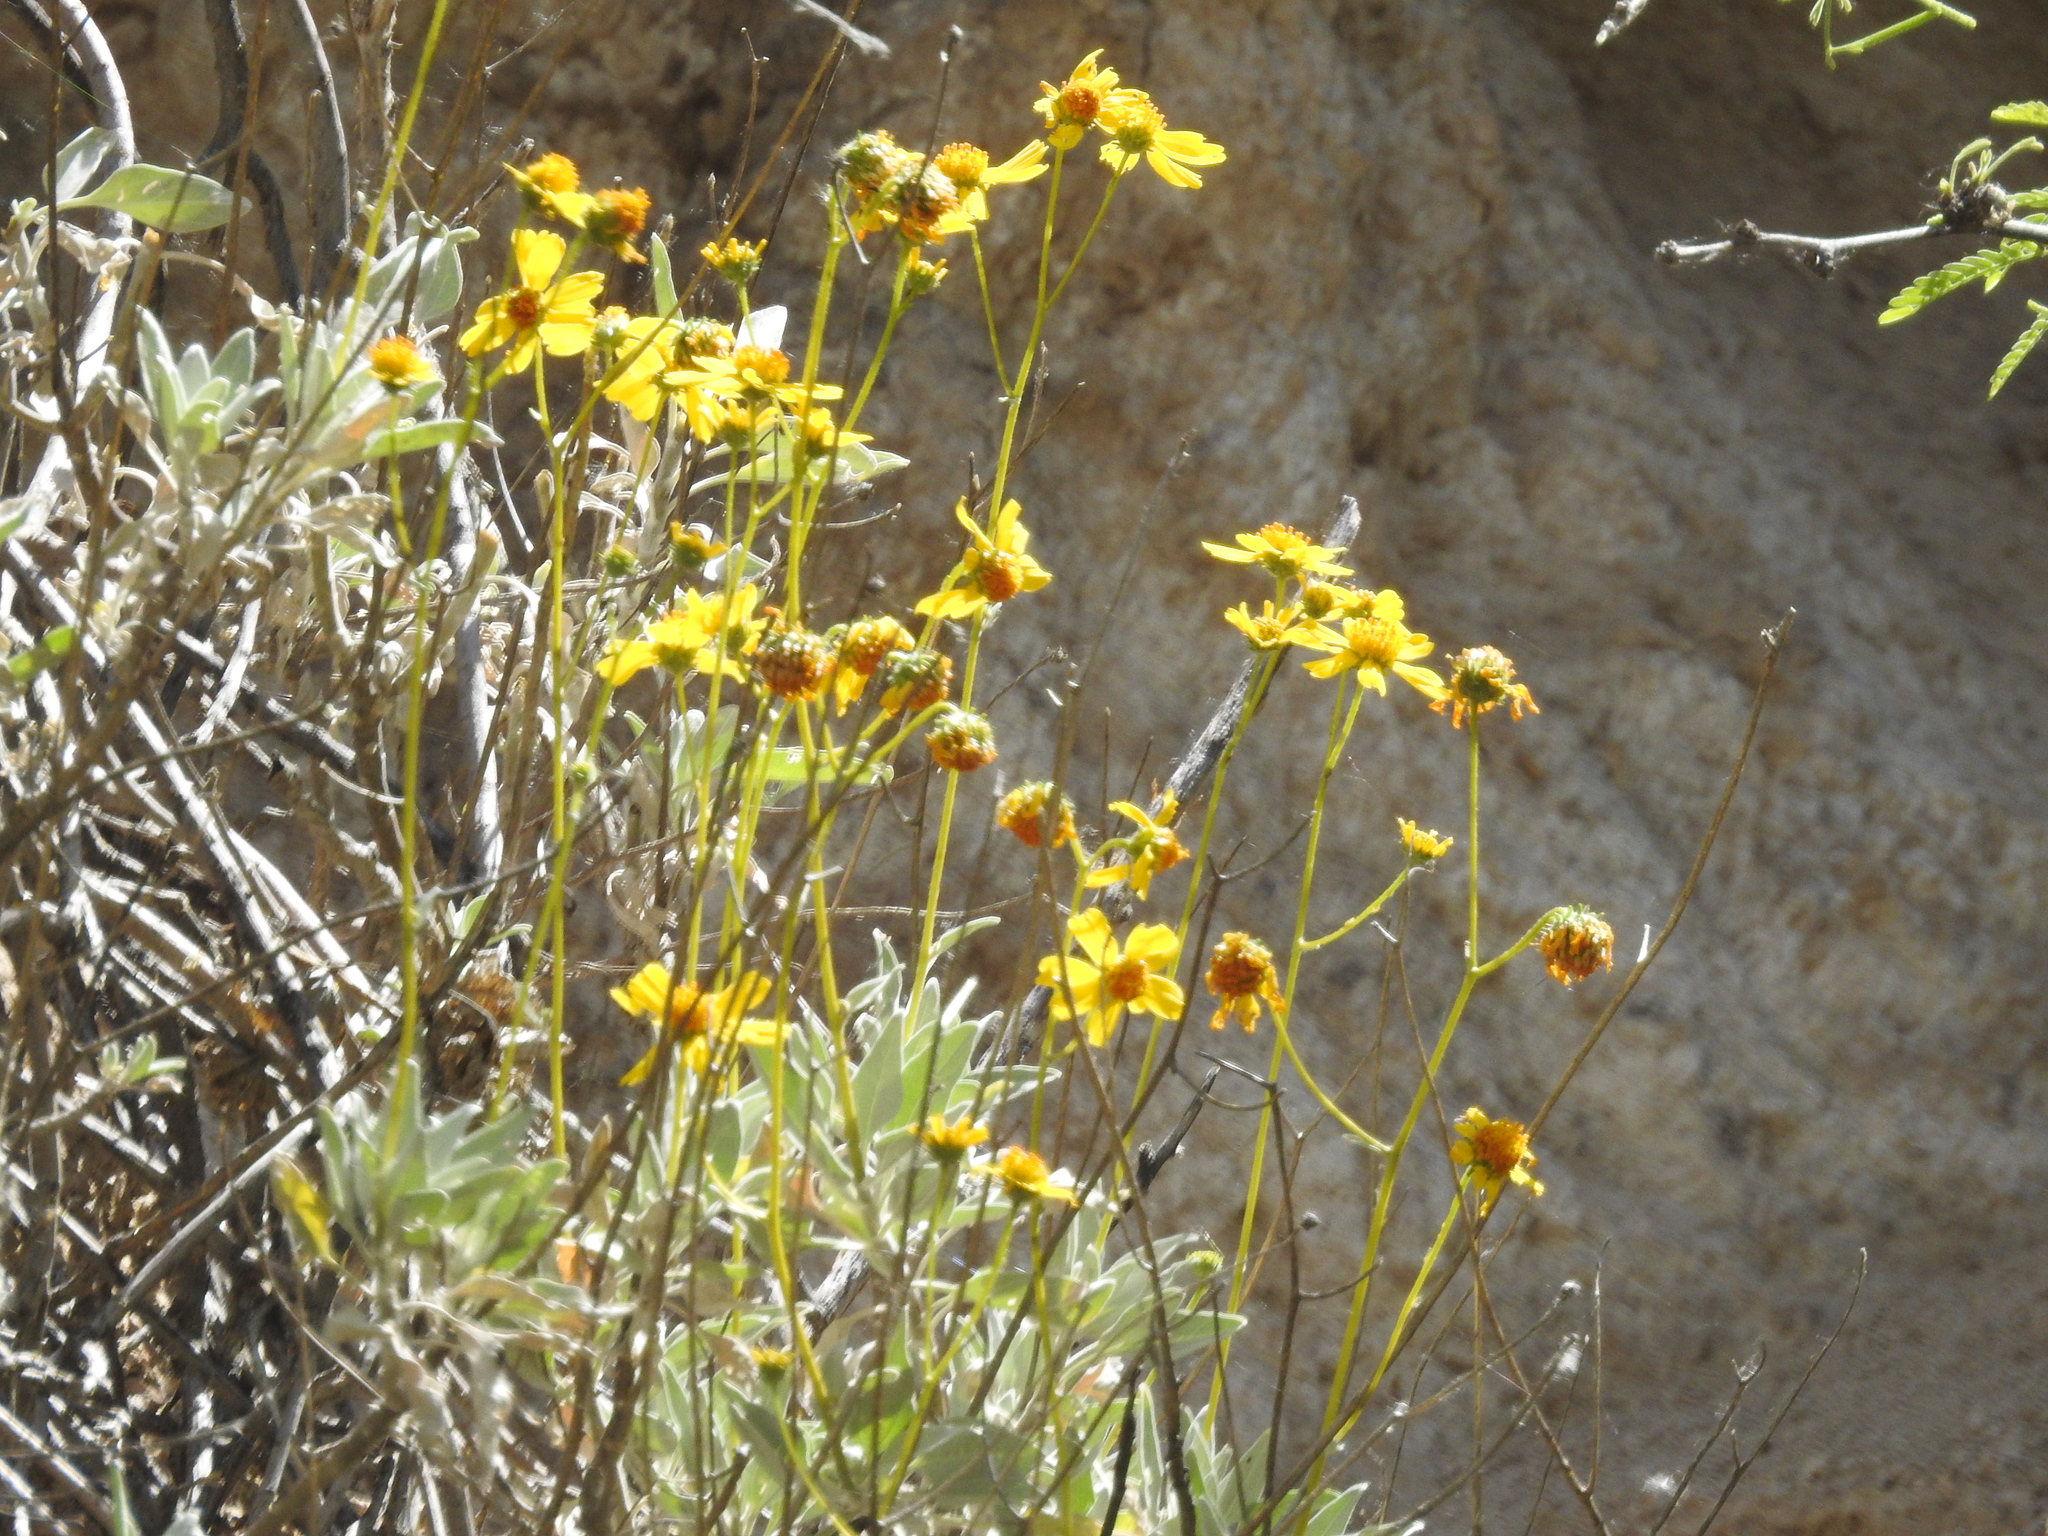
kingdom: Plantae
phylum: Tracheophyta
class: Magnoliopsida
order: Asterales
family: Asteraceae
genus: Encelia
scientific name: Encelia farinosa
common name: Brittlebush
